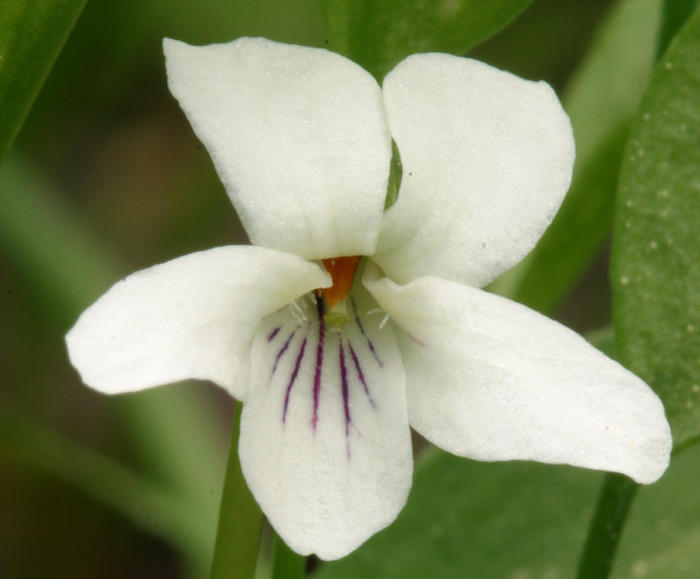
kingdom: Plantae
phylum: Tracheophyta
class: Magnoliopsida
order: Malpighiales
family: Violaceae
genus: Viola
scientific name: Viola macloskeyi
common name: Macloskey's violet
